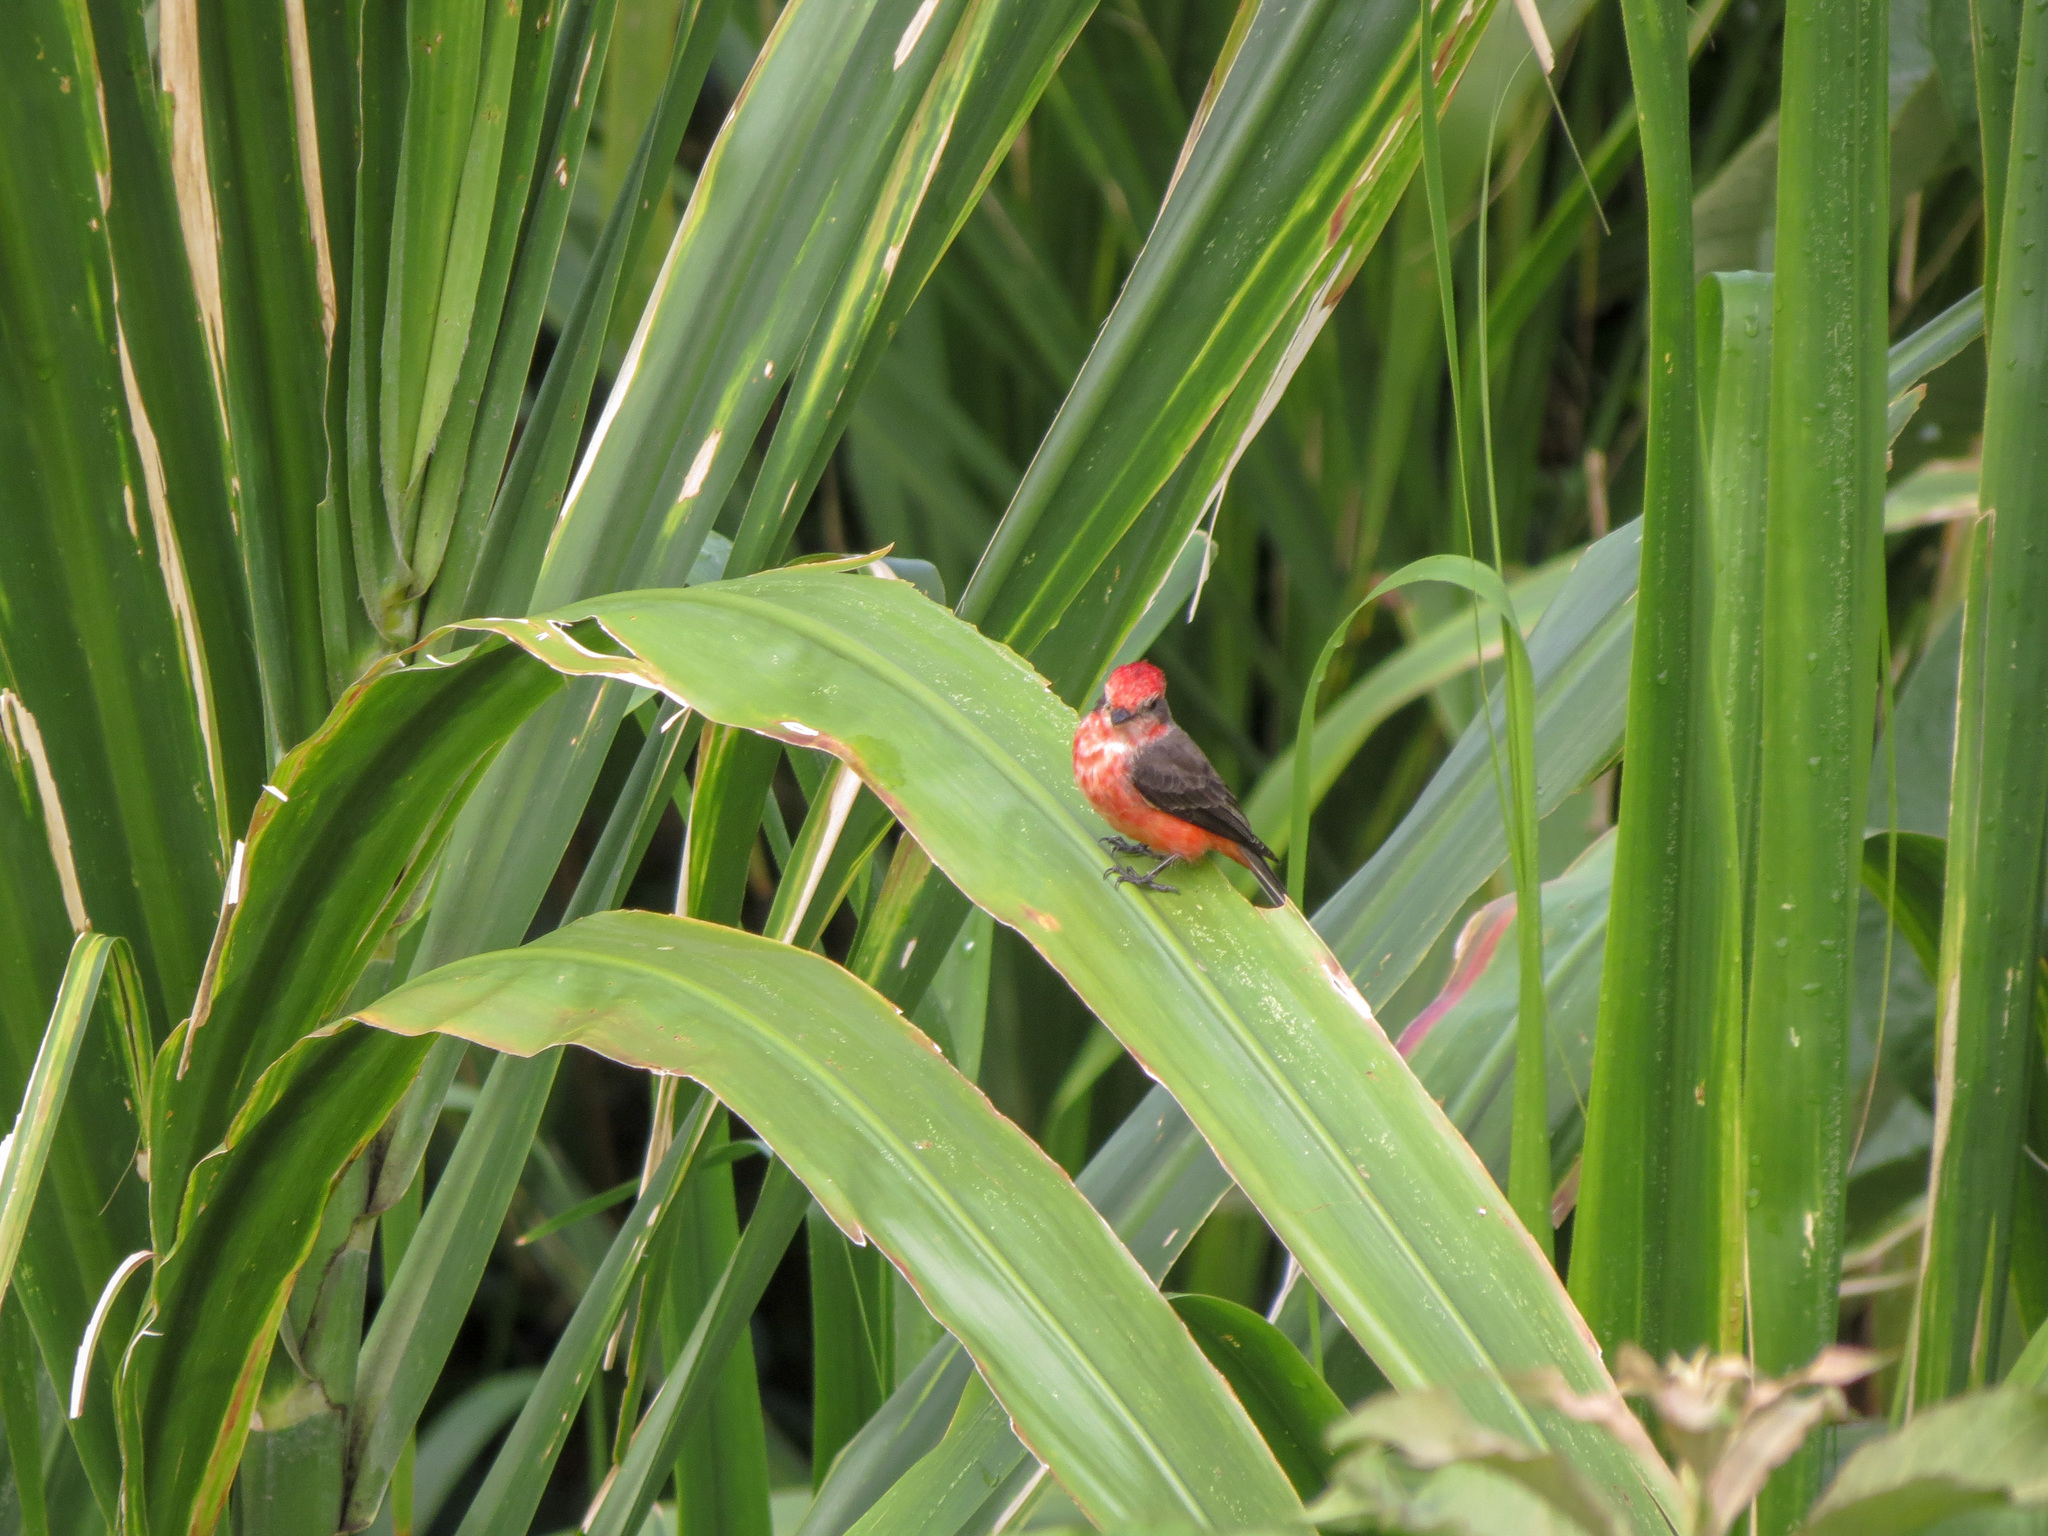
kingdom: Animalia
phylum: Chordata
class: Aves
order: Passeriformes
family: Tyrannidae
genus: Pyrocephalus
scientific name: Pyrocephalus rubinus
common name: Vermilion flycatcher
